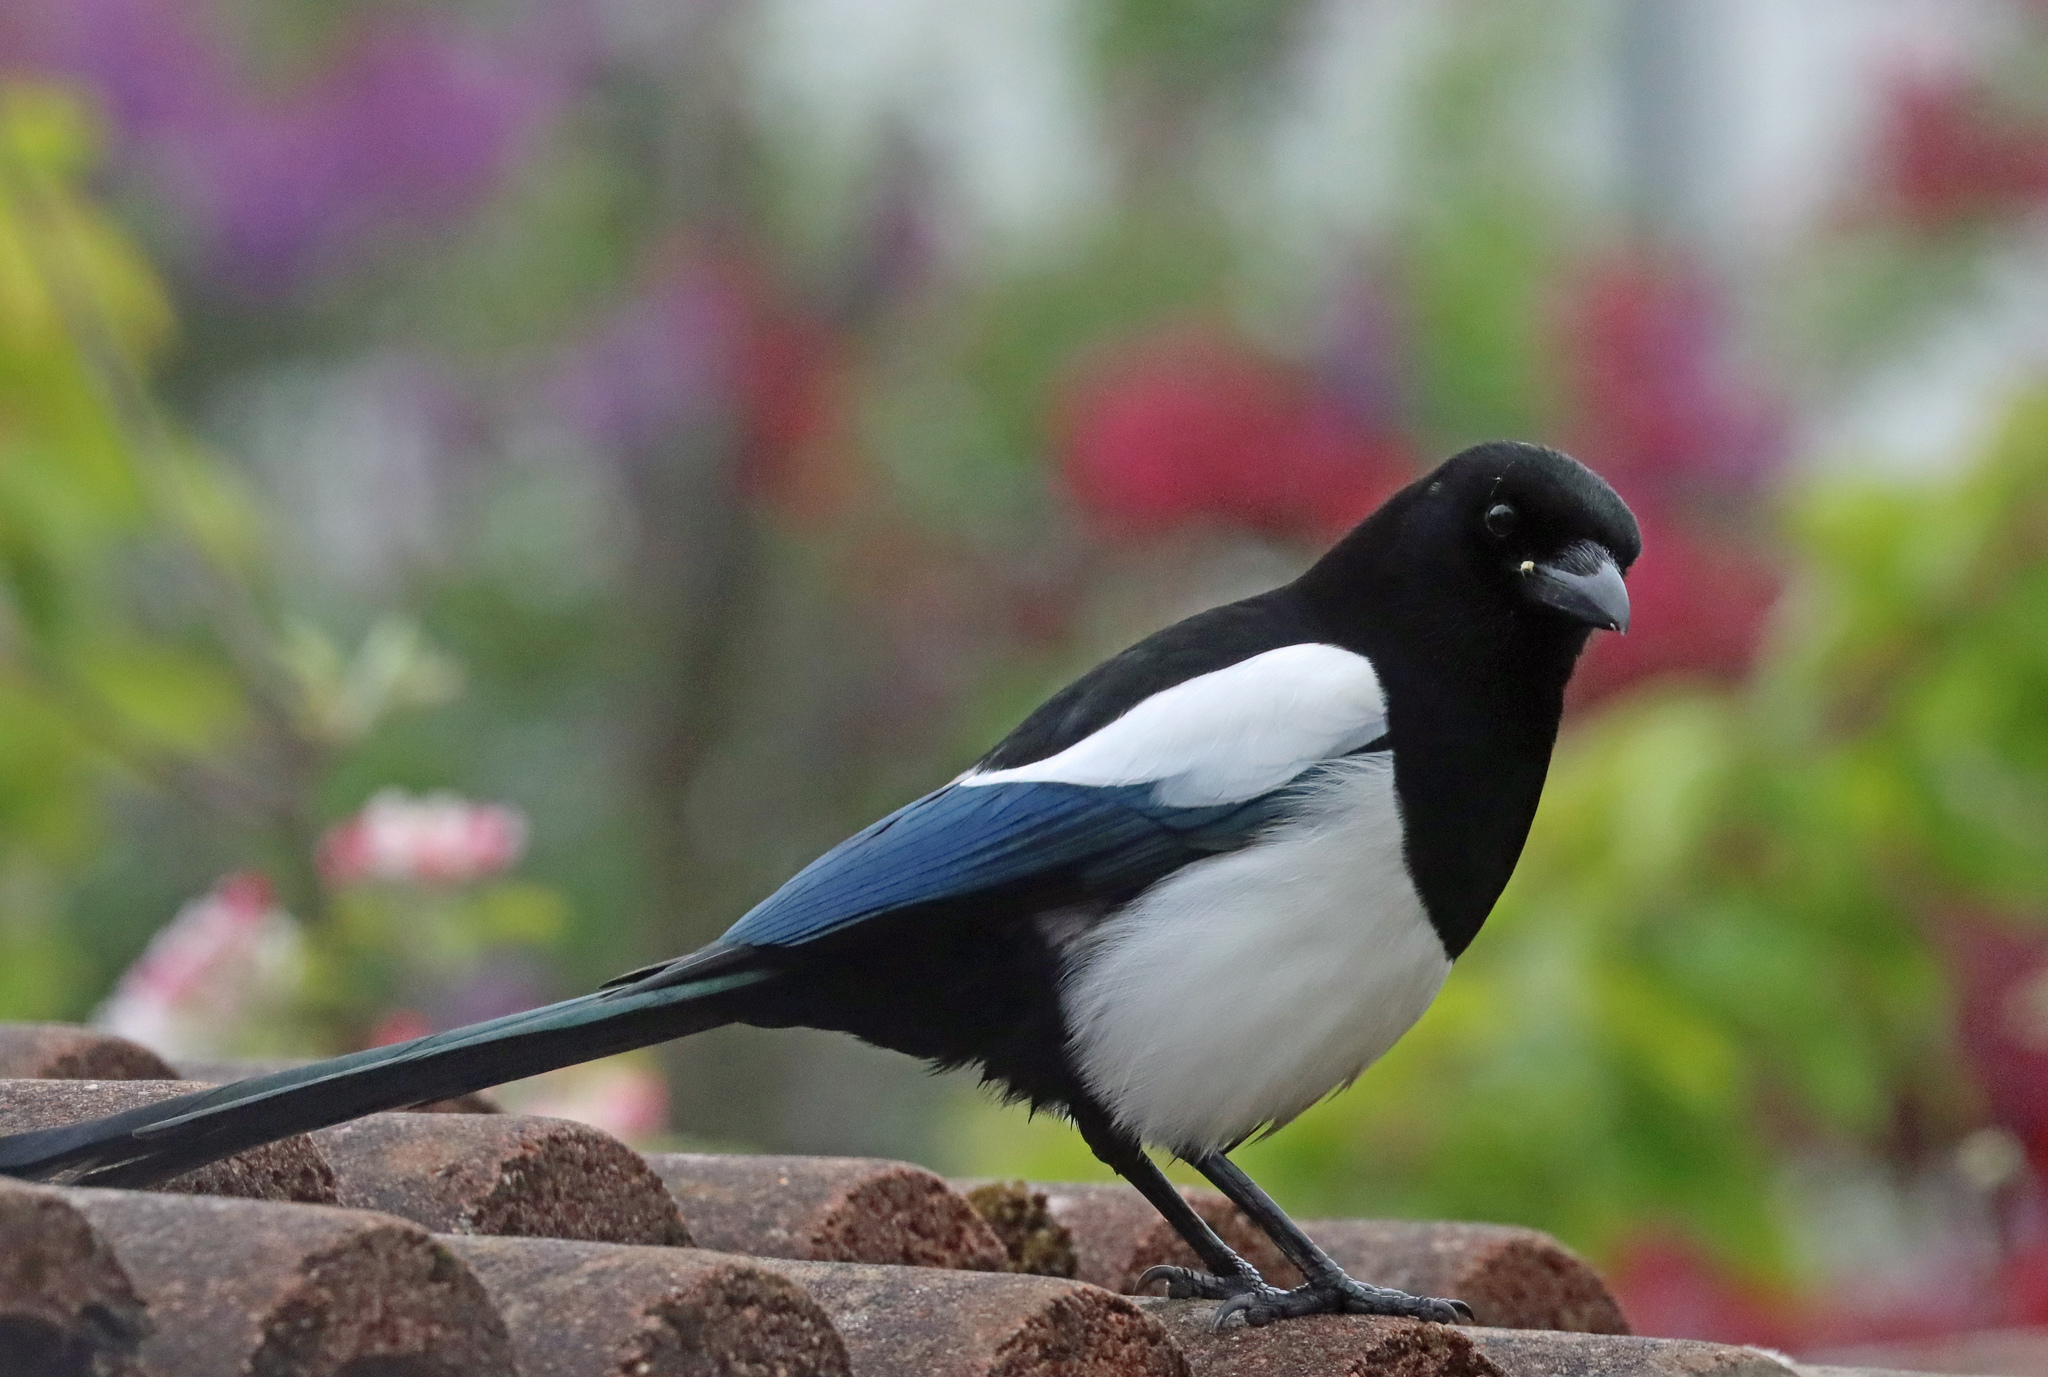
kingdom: Animalia
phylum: Chordata
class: Aves
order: Passeriformes
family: Corvidae
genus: Pica
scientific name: Pica pica
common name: Eurasian magpie
